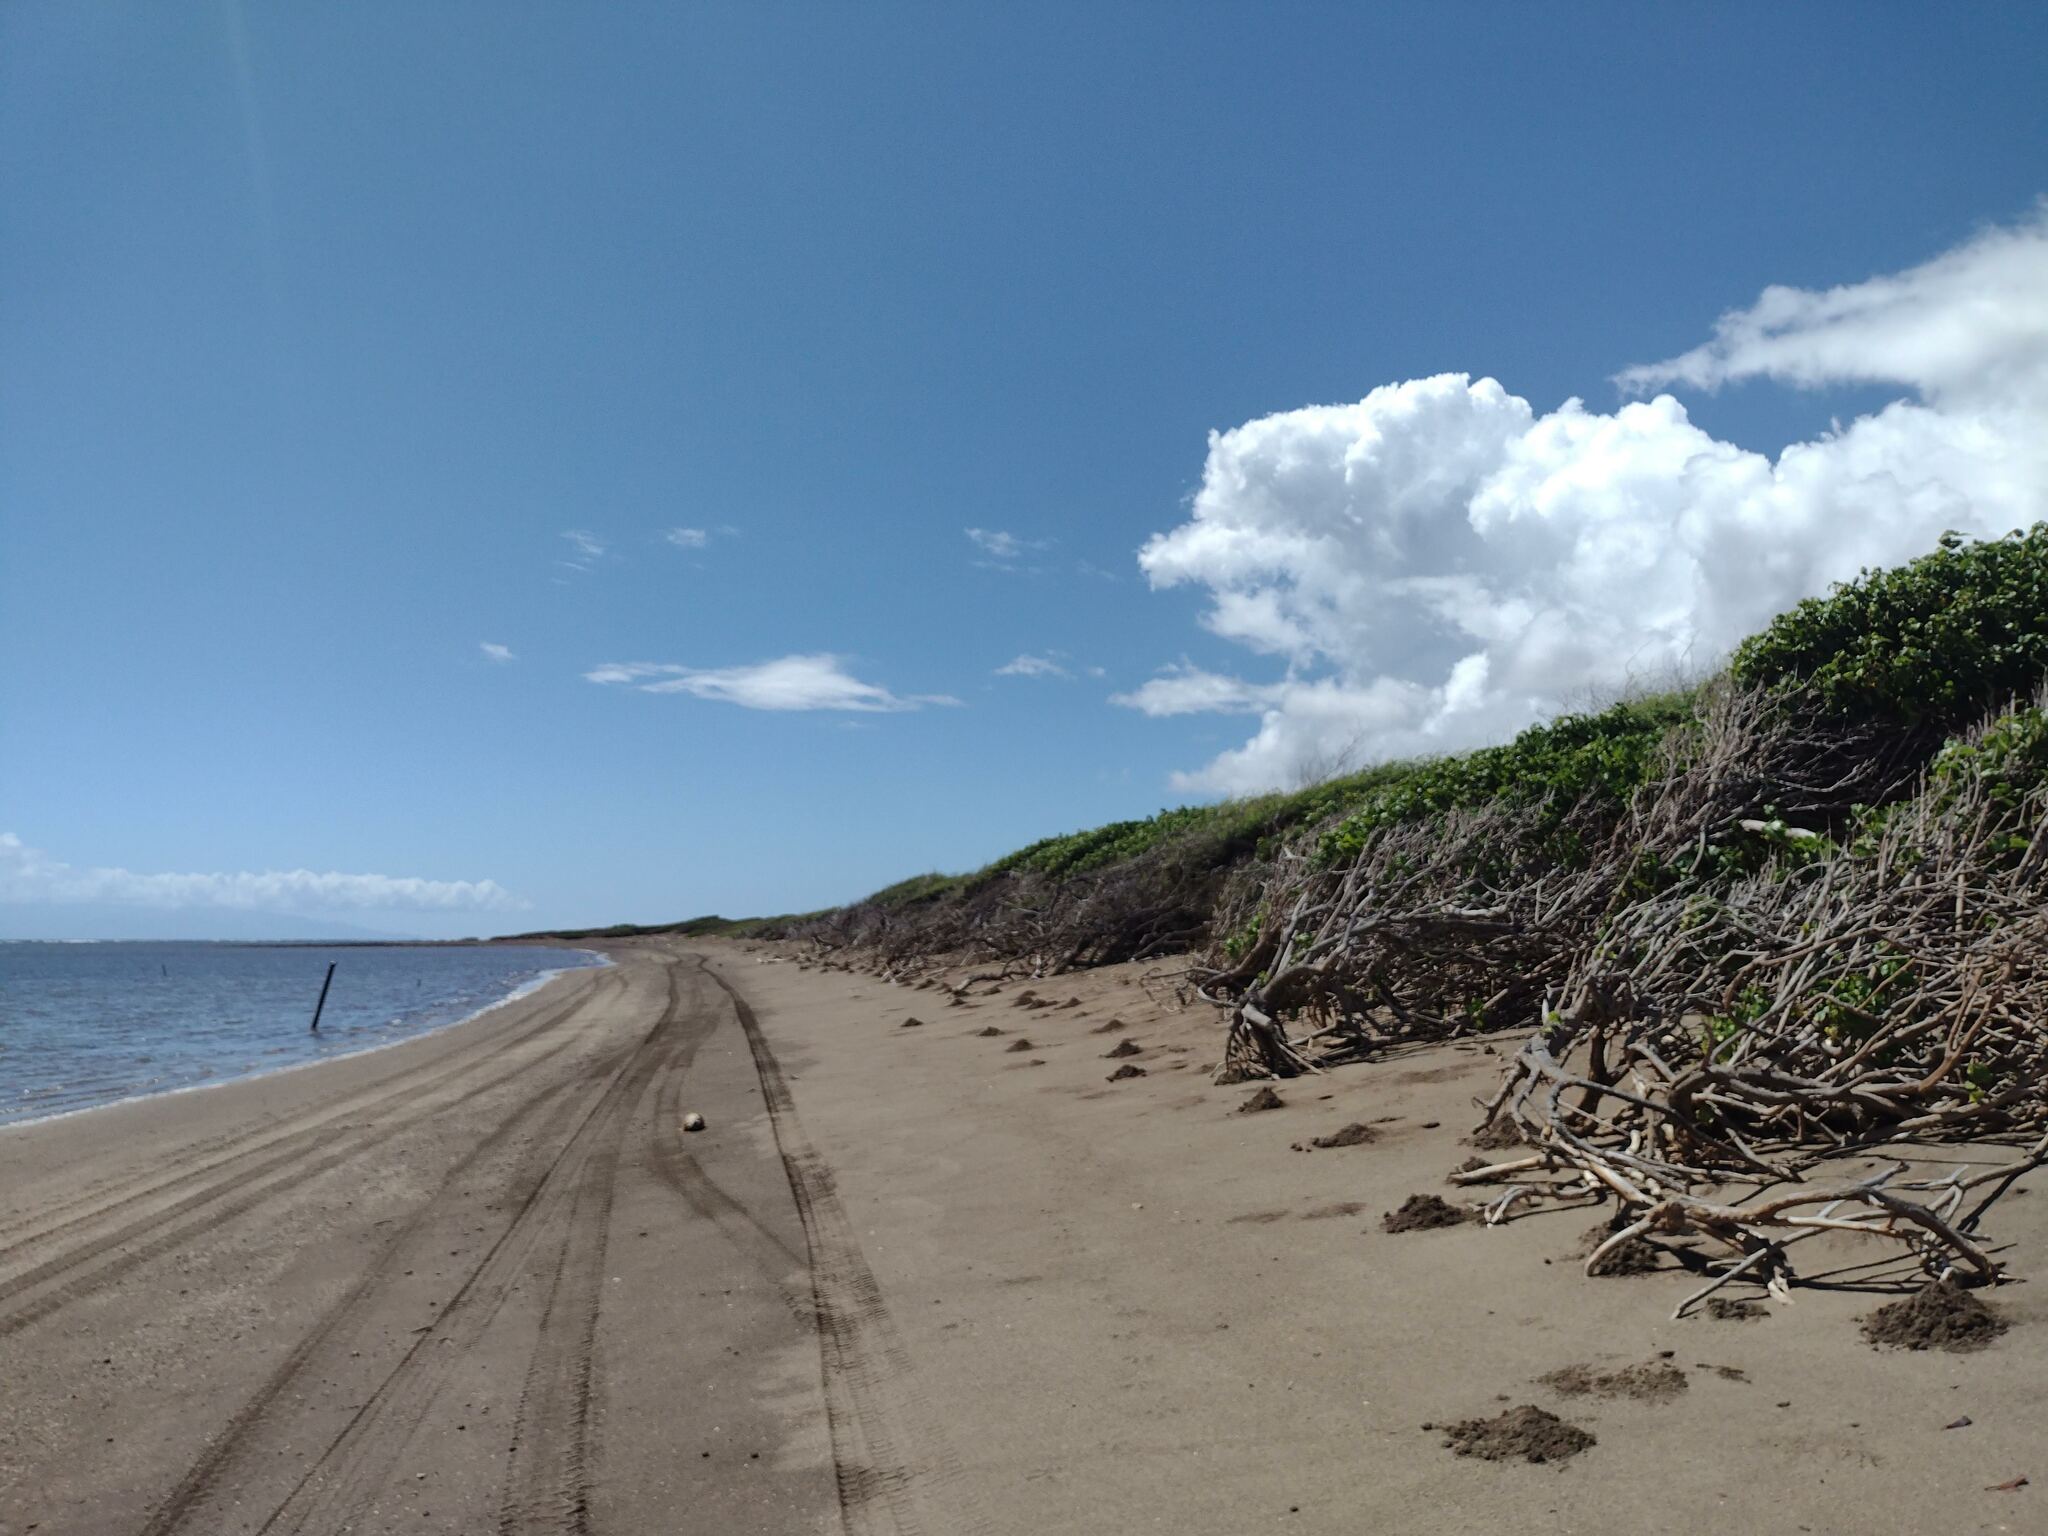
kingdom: Plantae
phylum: Tracheophyta
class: Magnoliopsida
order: Malvales
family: Malvaceae
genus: Thespesia
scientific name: Thespesia populnea
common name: Seaside mahoe
